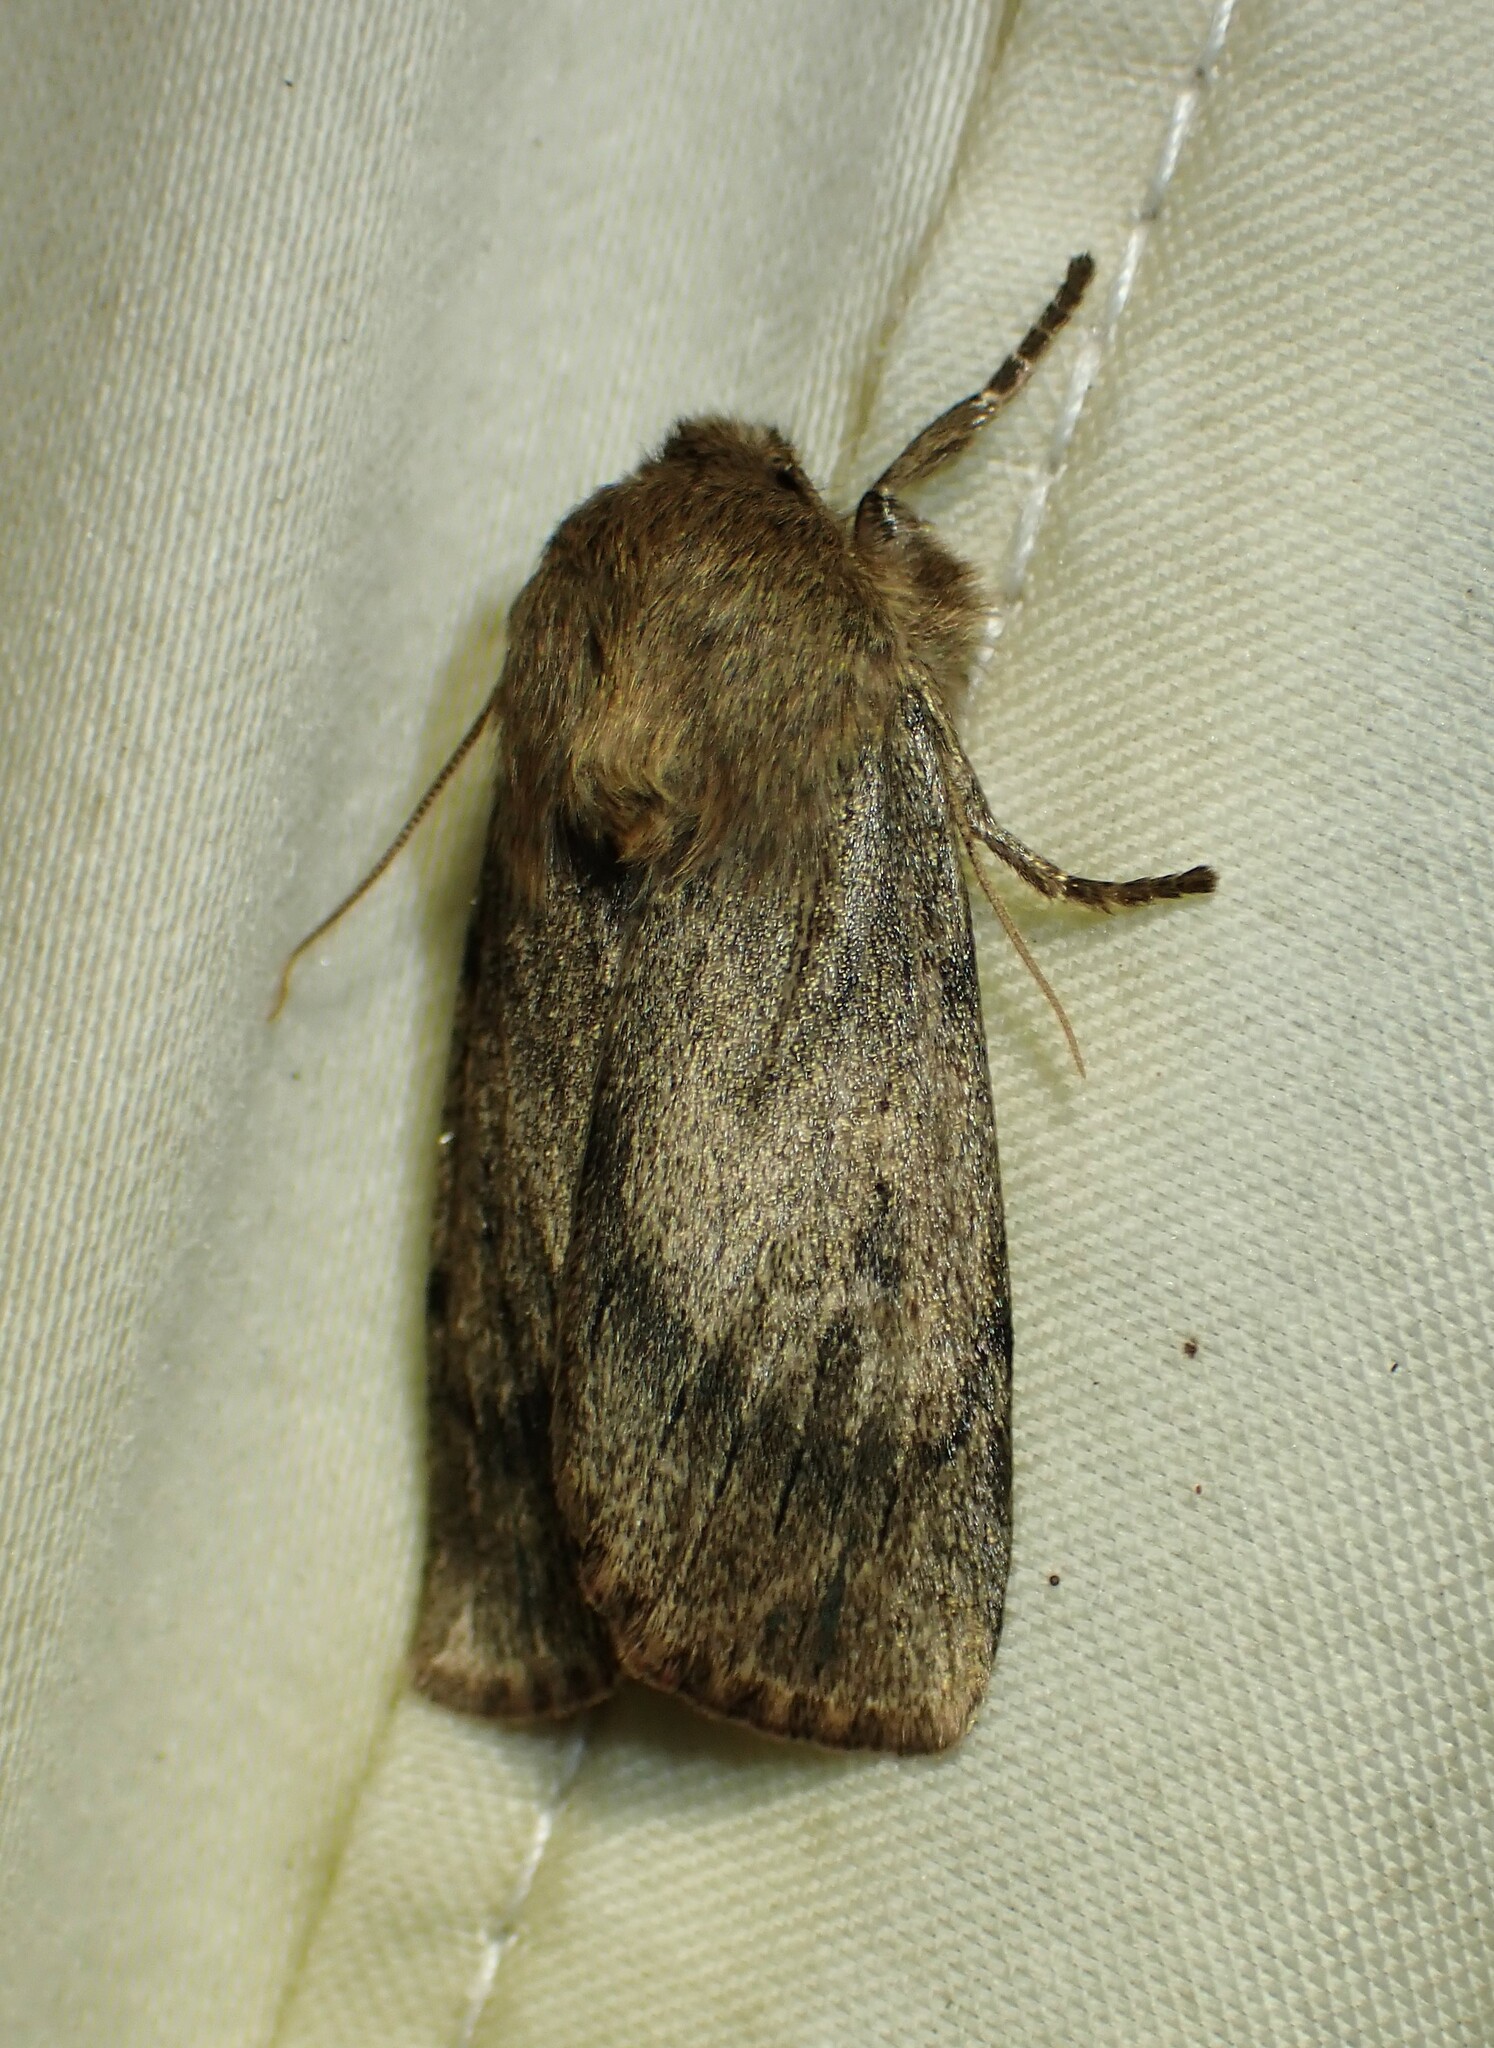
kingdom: Animalia
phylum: Arthropoda
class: Insecta
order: Lepidoptera
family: Noctuidae
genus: Ufeus
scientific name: Ufeus satyricus
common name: Brown satyr moth
